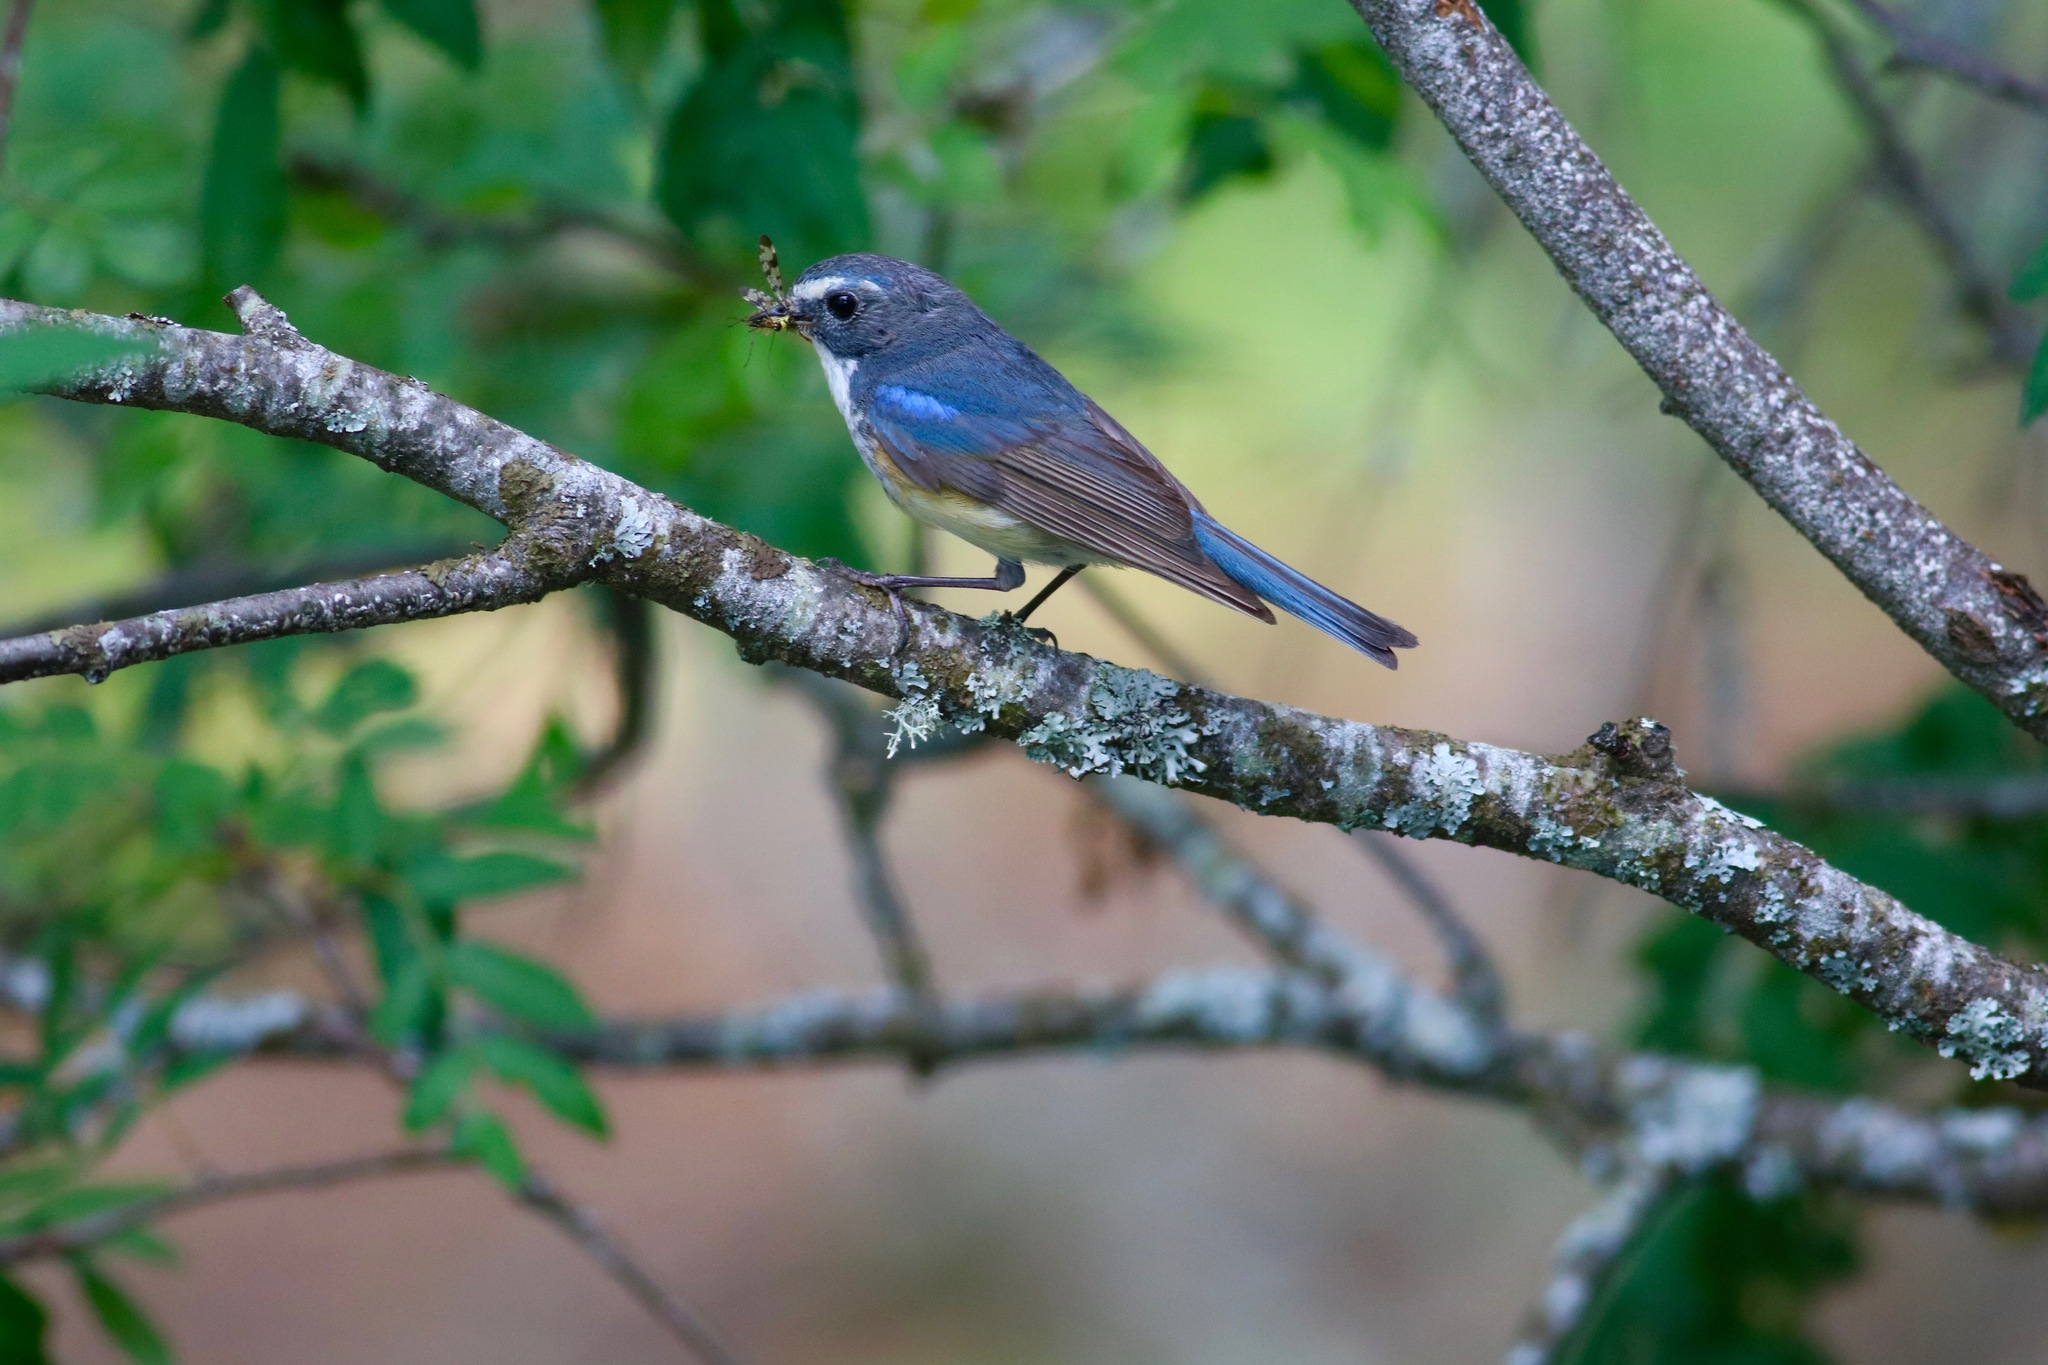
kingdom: Animalia
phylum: Chordata
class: Aves
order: Passeriformes
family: Muscicapidae
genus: Tarsiger
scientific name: Tarsiger cyanurus
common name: Red-flanked bluetail
